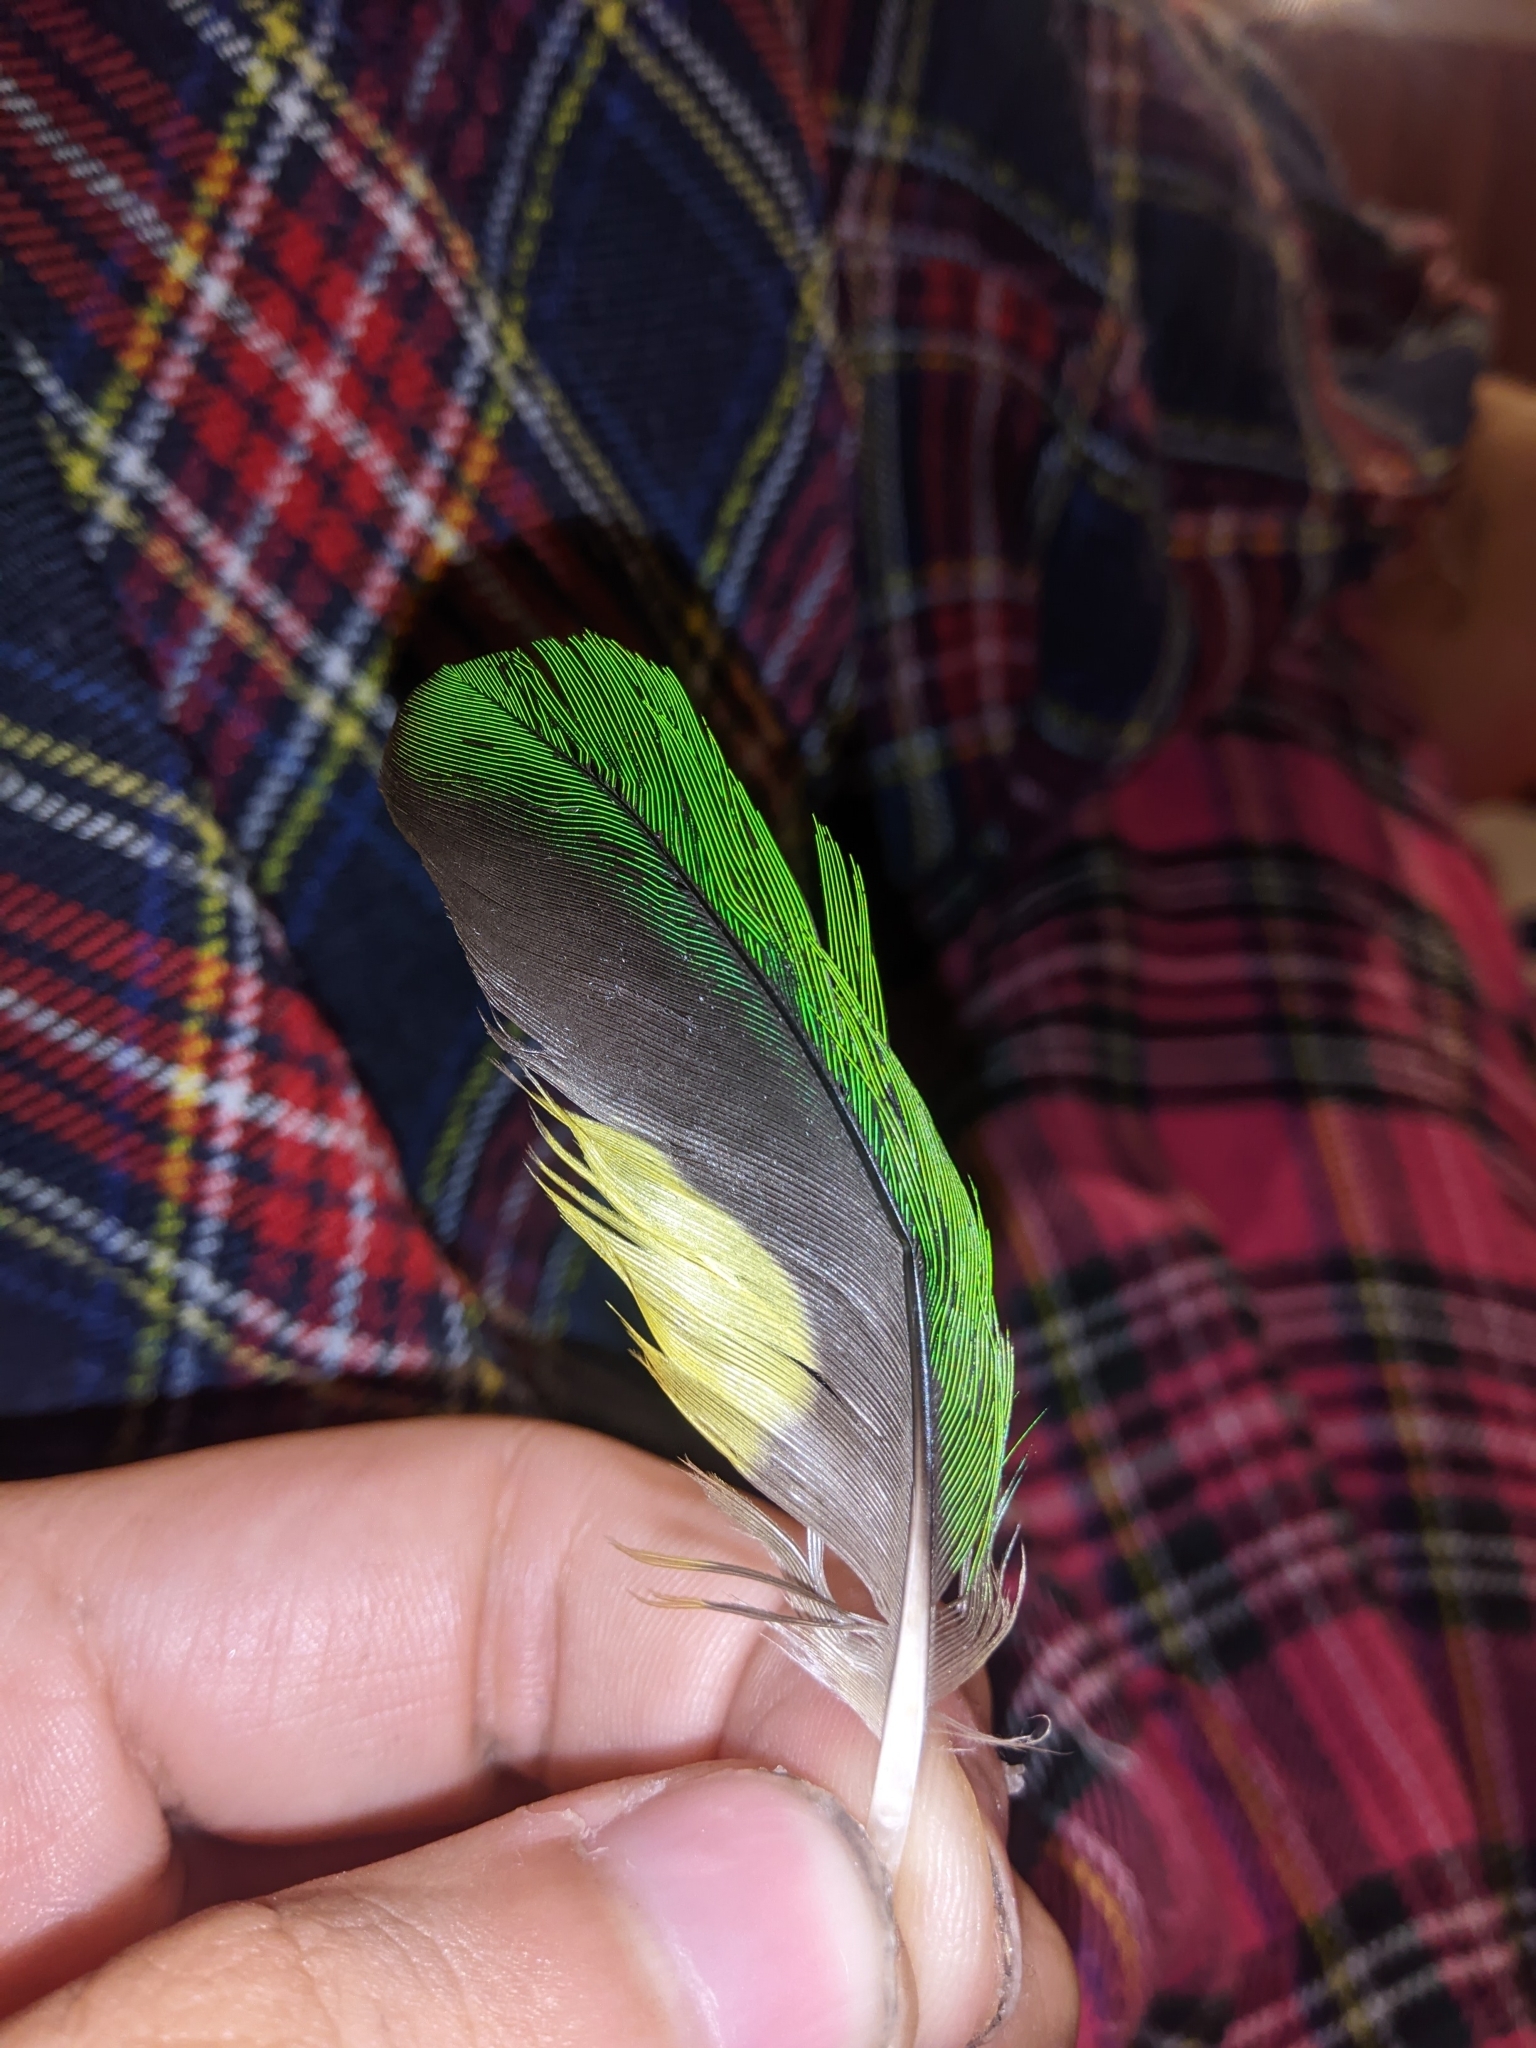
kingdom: Animalia
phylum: Chordata
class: Aves
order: Psittaciformes
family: Psittacidae
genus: Trichoglossus
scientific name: Trichoglossus haematodus
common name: Coconut lorikeet
